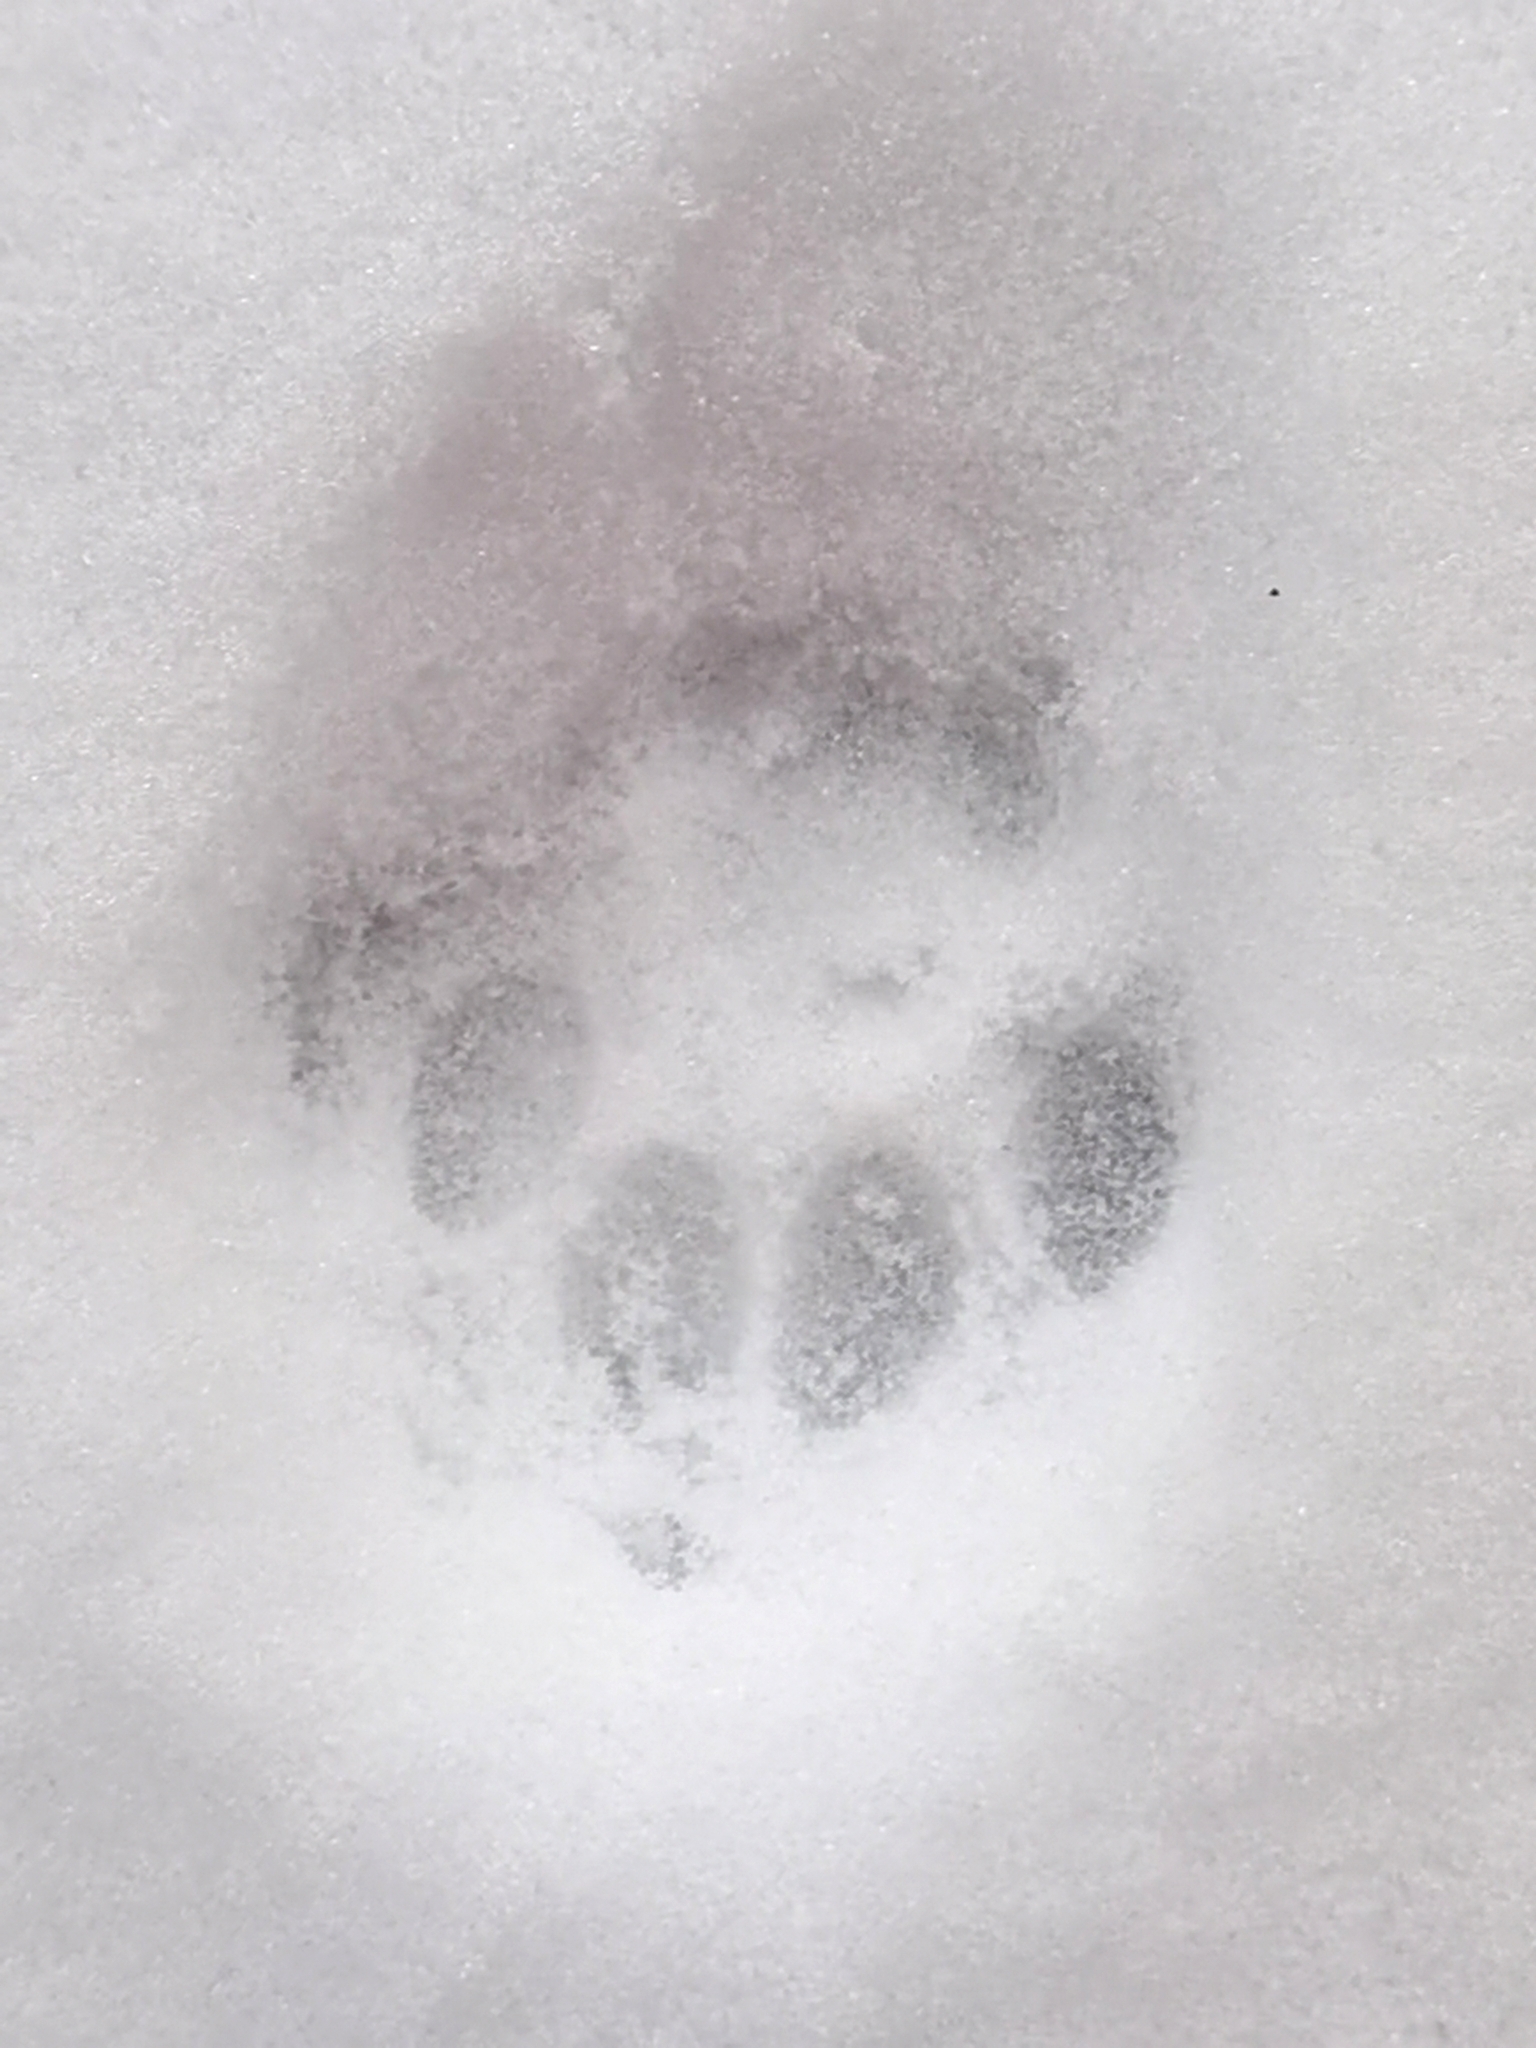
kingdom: Animalia
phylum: Chordata
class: Mammalia
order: Carnivora
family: Felidae
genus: Felis
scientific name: Felis catus
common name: Domestic cat
